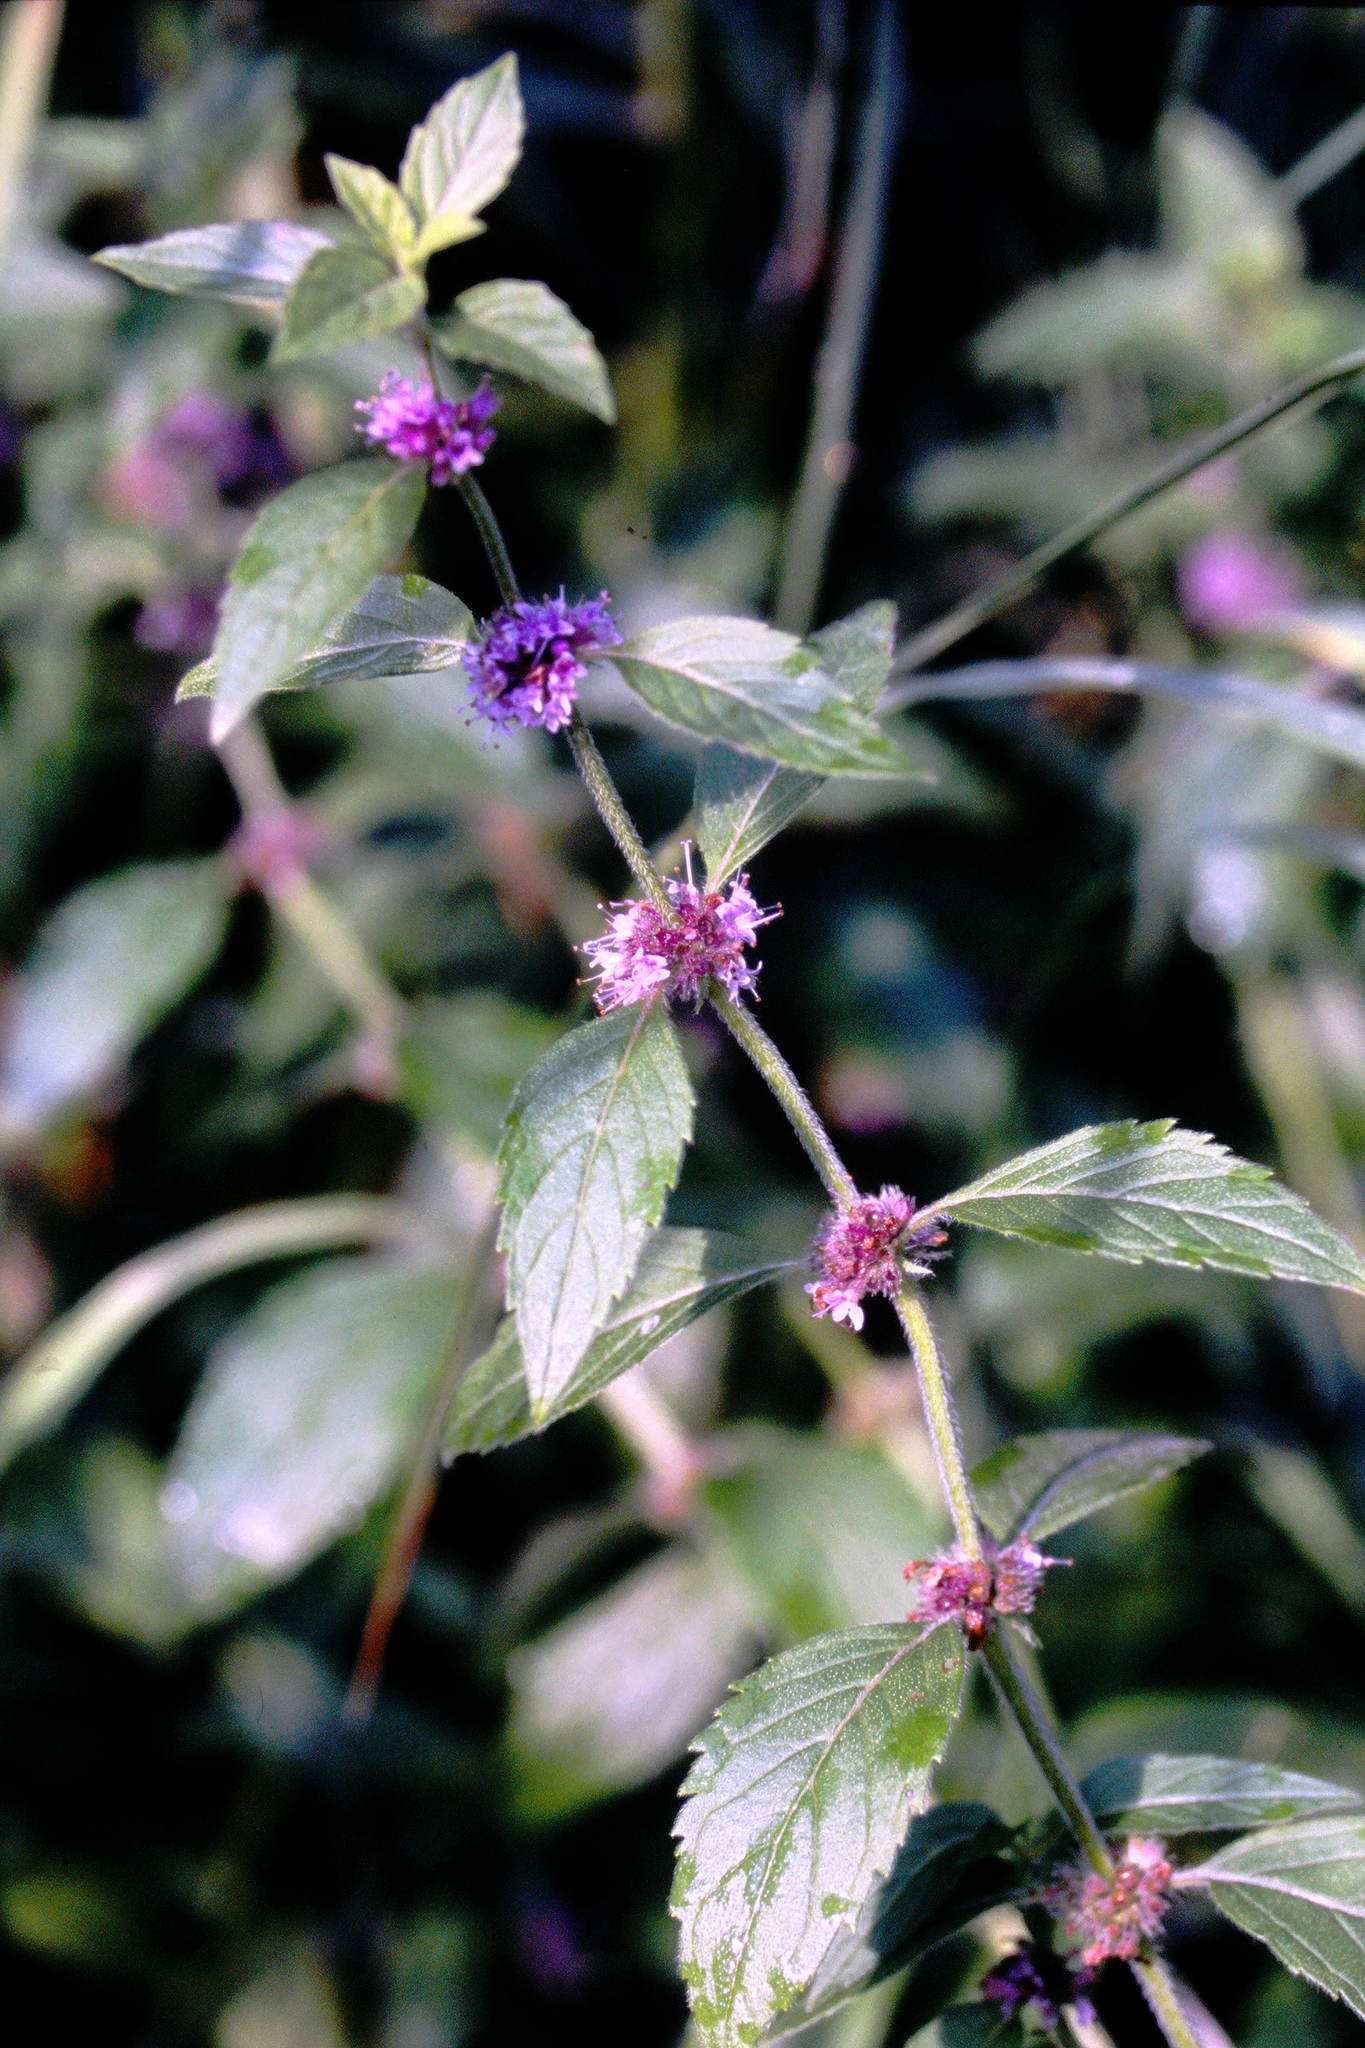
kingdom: Plantae
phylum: Tracheophyta
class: Magnoliopsida
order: Lamiales
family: Lamiaceae
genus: Mentha
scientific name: Mentha canadensis
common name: American corn mint
